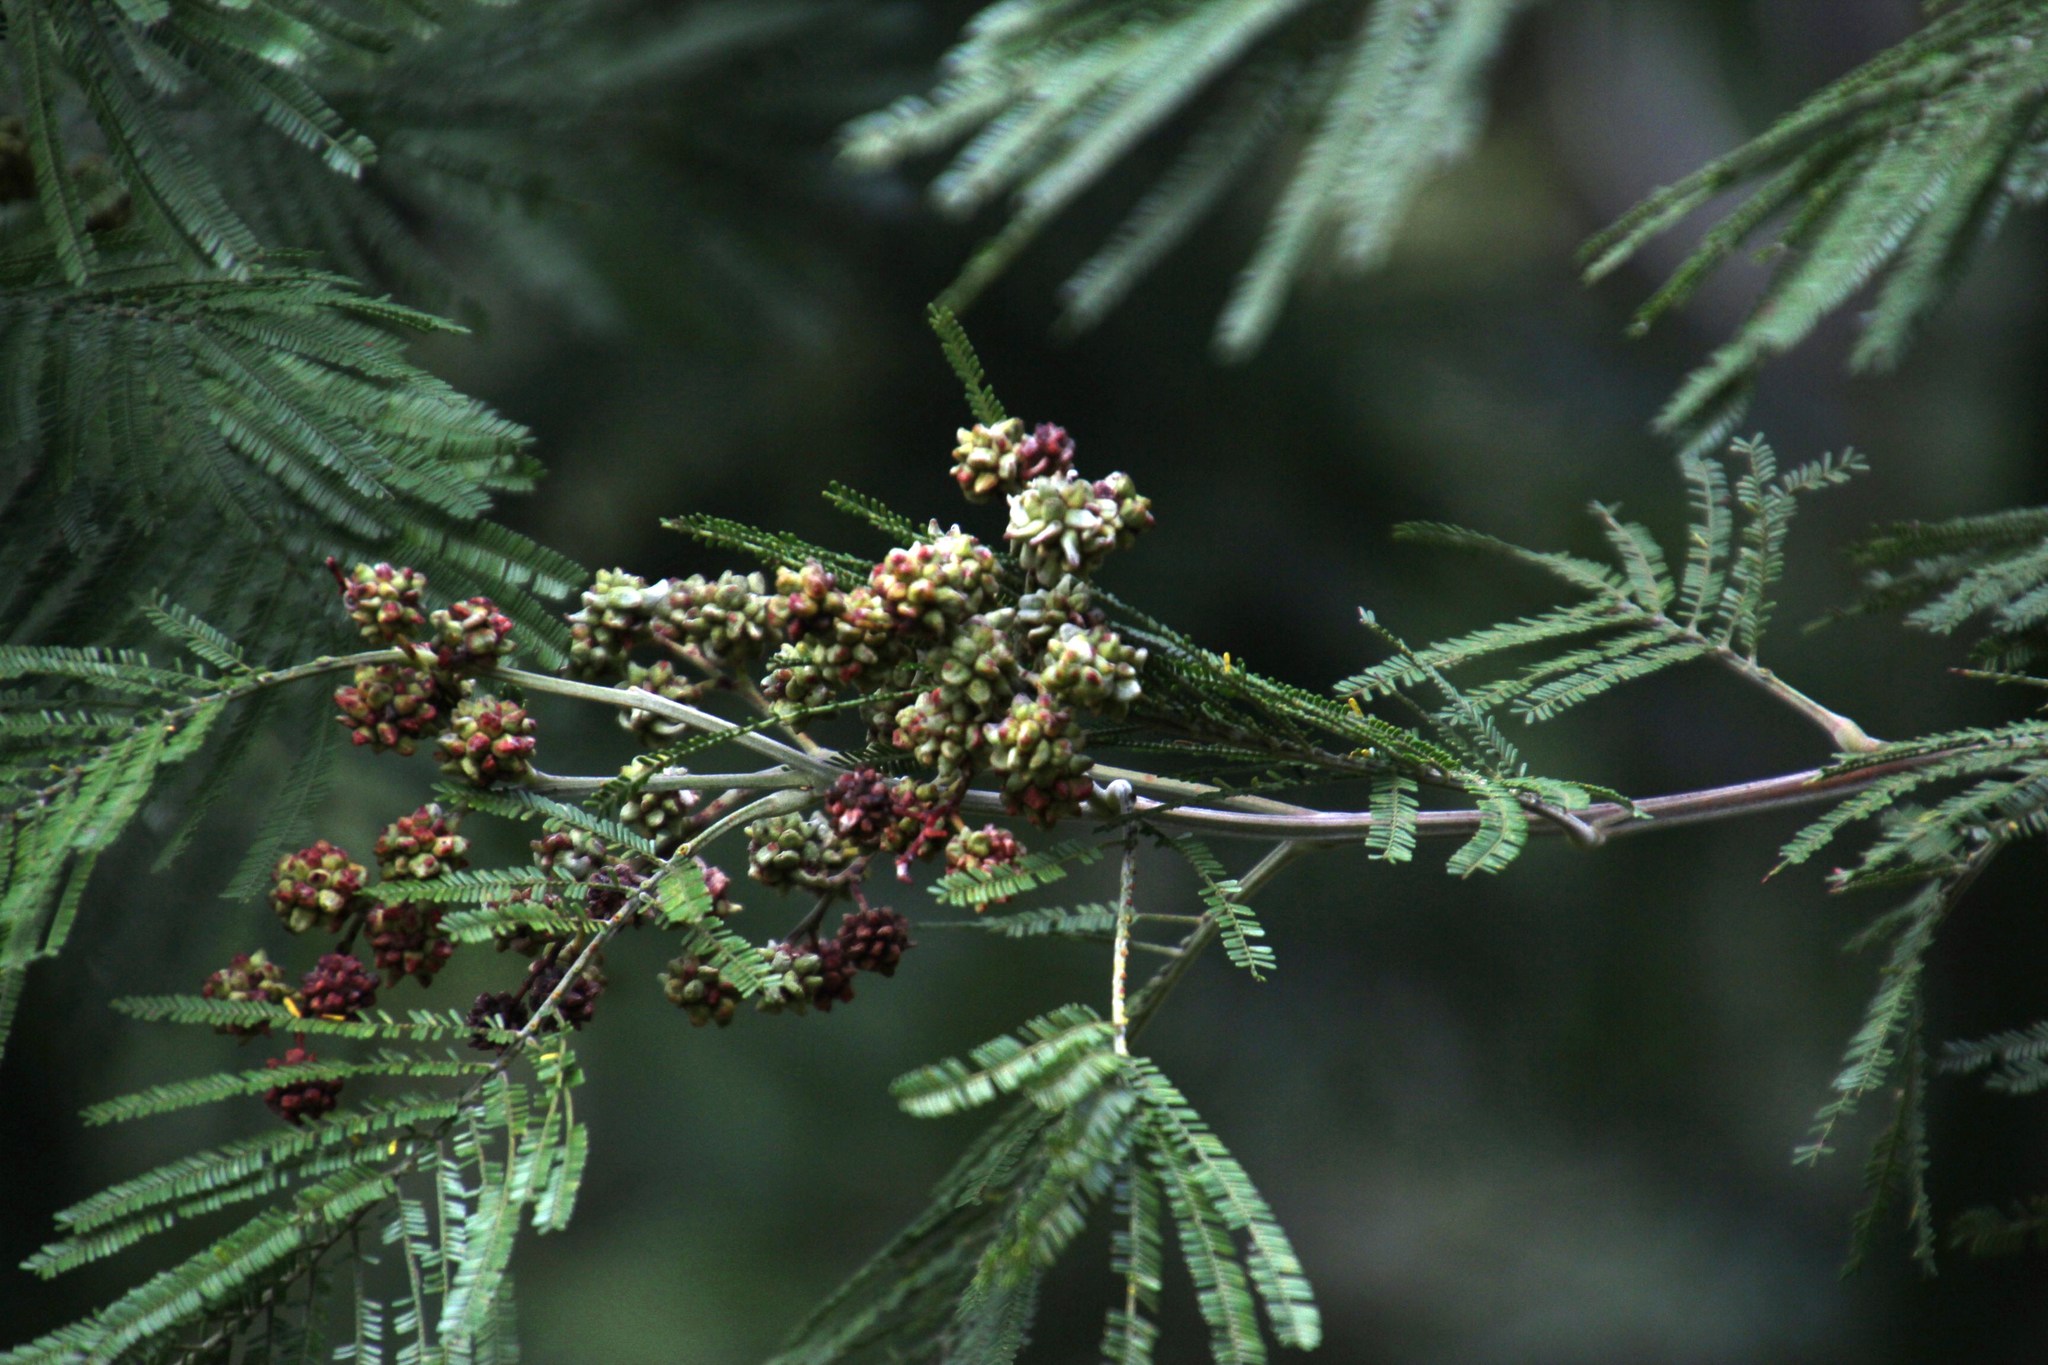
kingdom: Plantae
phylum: Tracheophyta
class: Magnoliopsida
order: Fabales
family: Fabaceae
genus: Acacia
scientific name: Acacia mearnsii
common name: Black wattle
